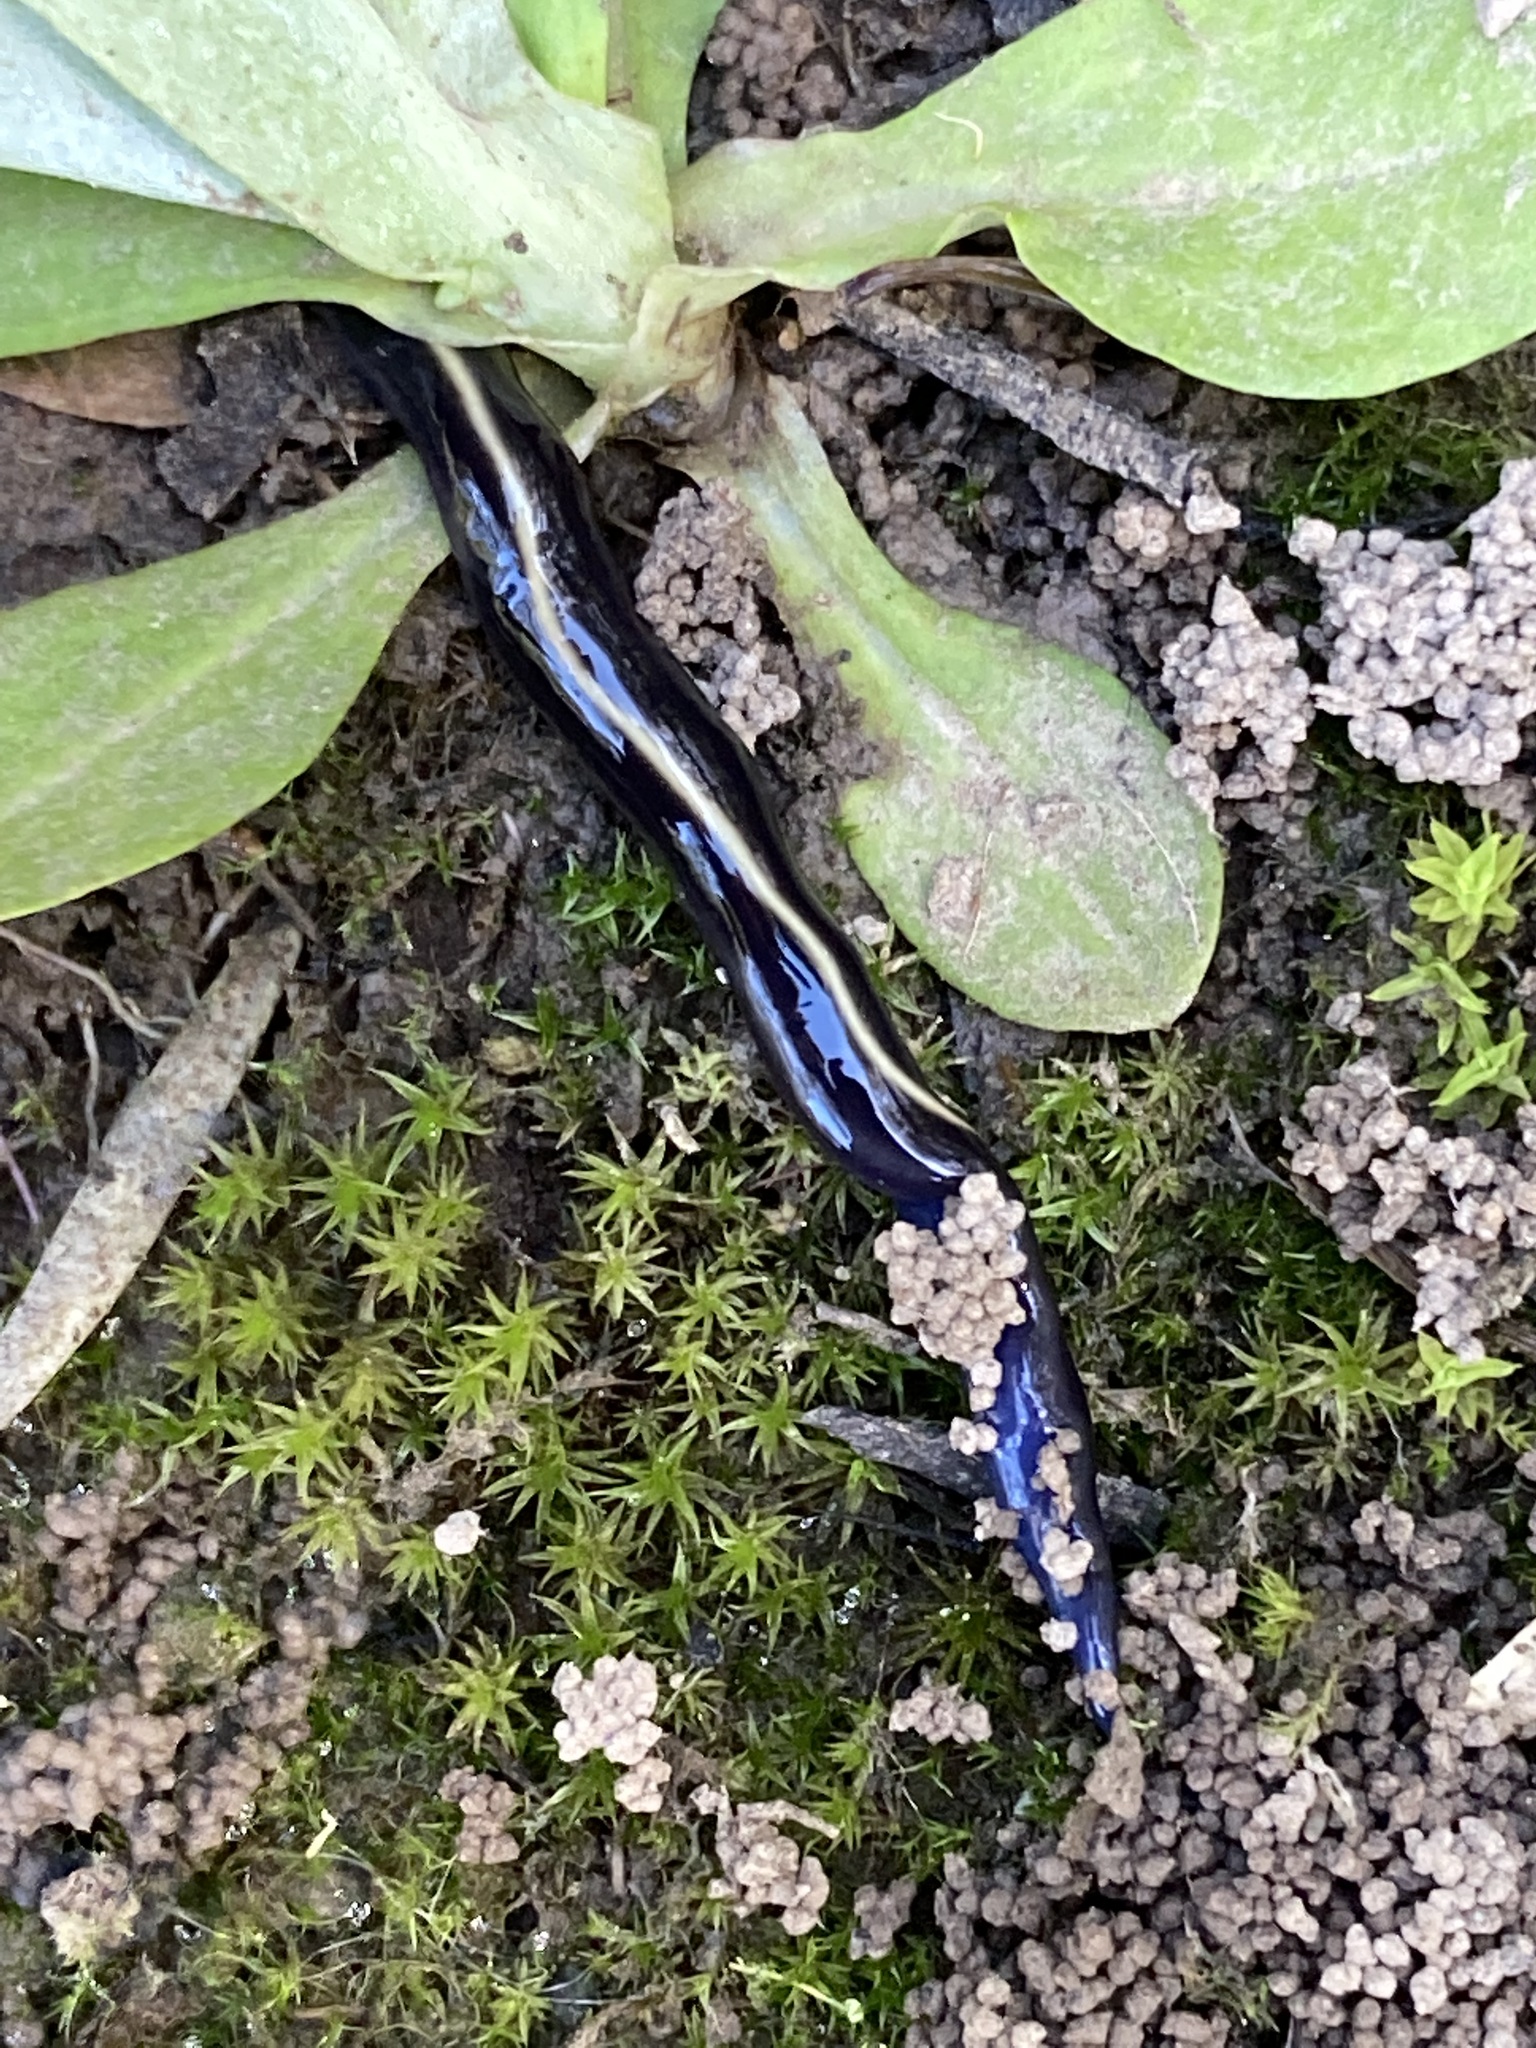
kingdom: Animalia
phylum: Platyhelminthes
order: Tricladida
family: Geoplanidae
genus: Caenoplana
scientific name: Caenoplana coerulea
